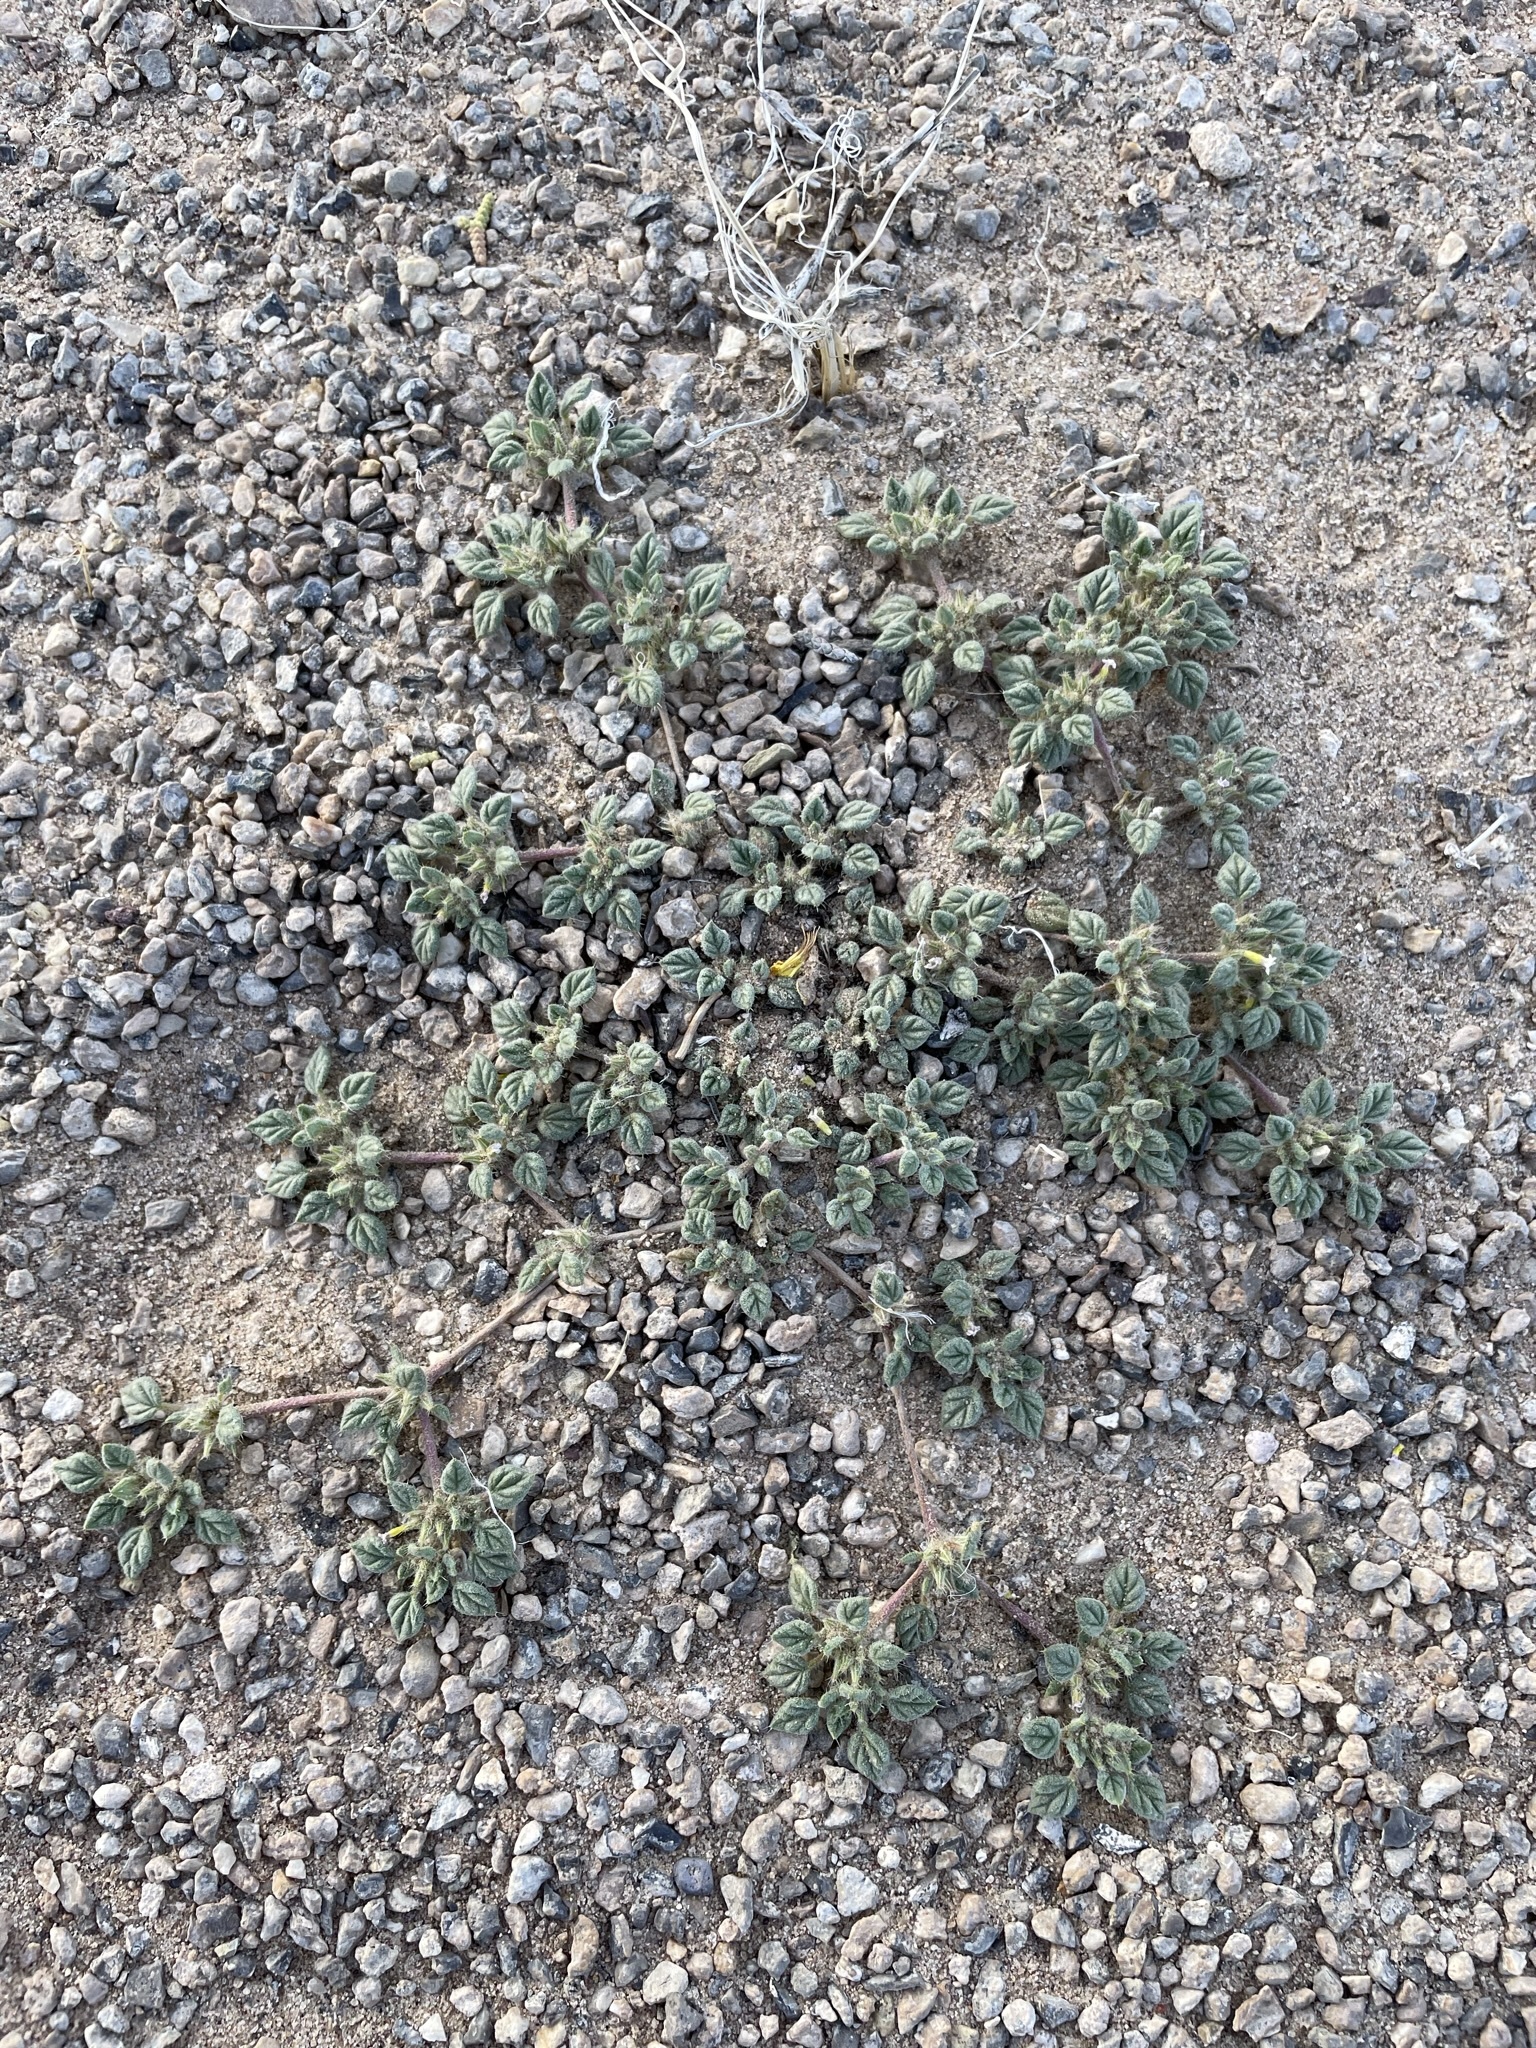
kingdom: Plantae
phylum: Tracheophyta
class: Magnoliopsida
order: Boraginales
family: Ehretiaceae
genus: Tiquilia
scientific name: Tiquilia nuttallii
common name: Rosette tiquilia
